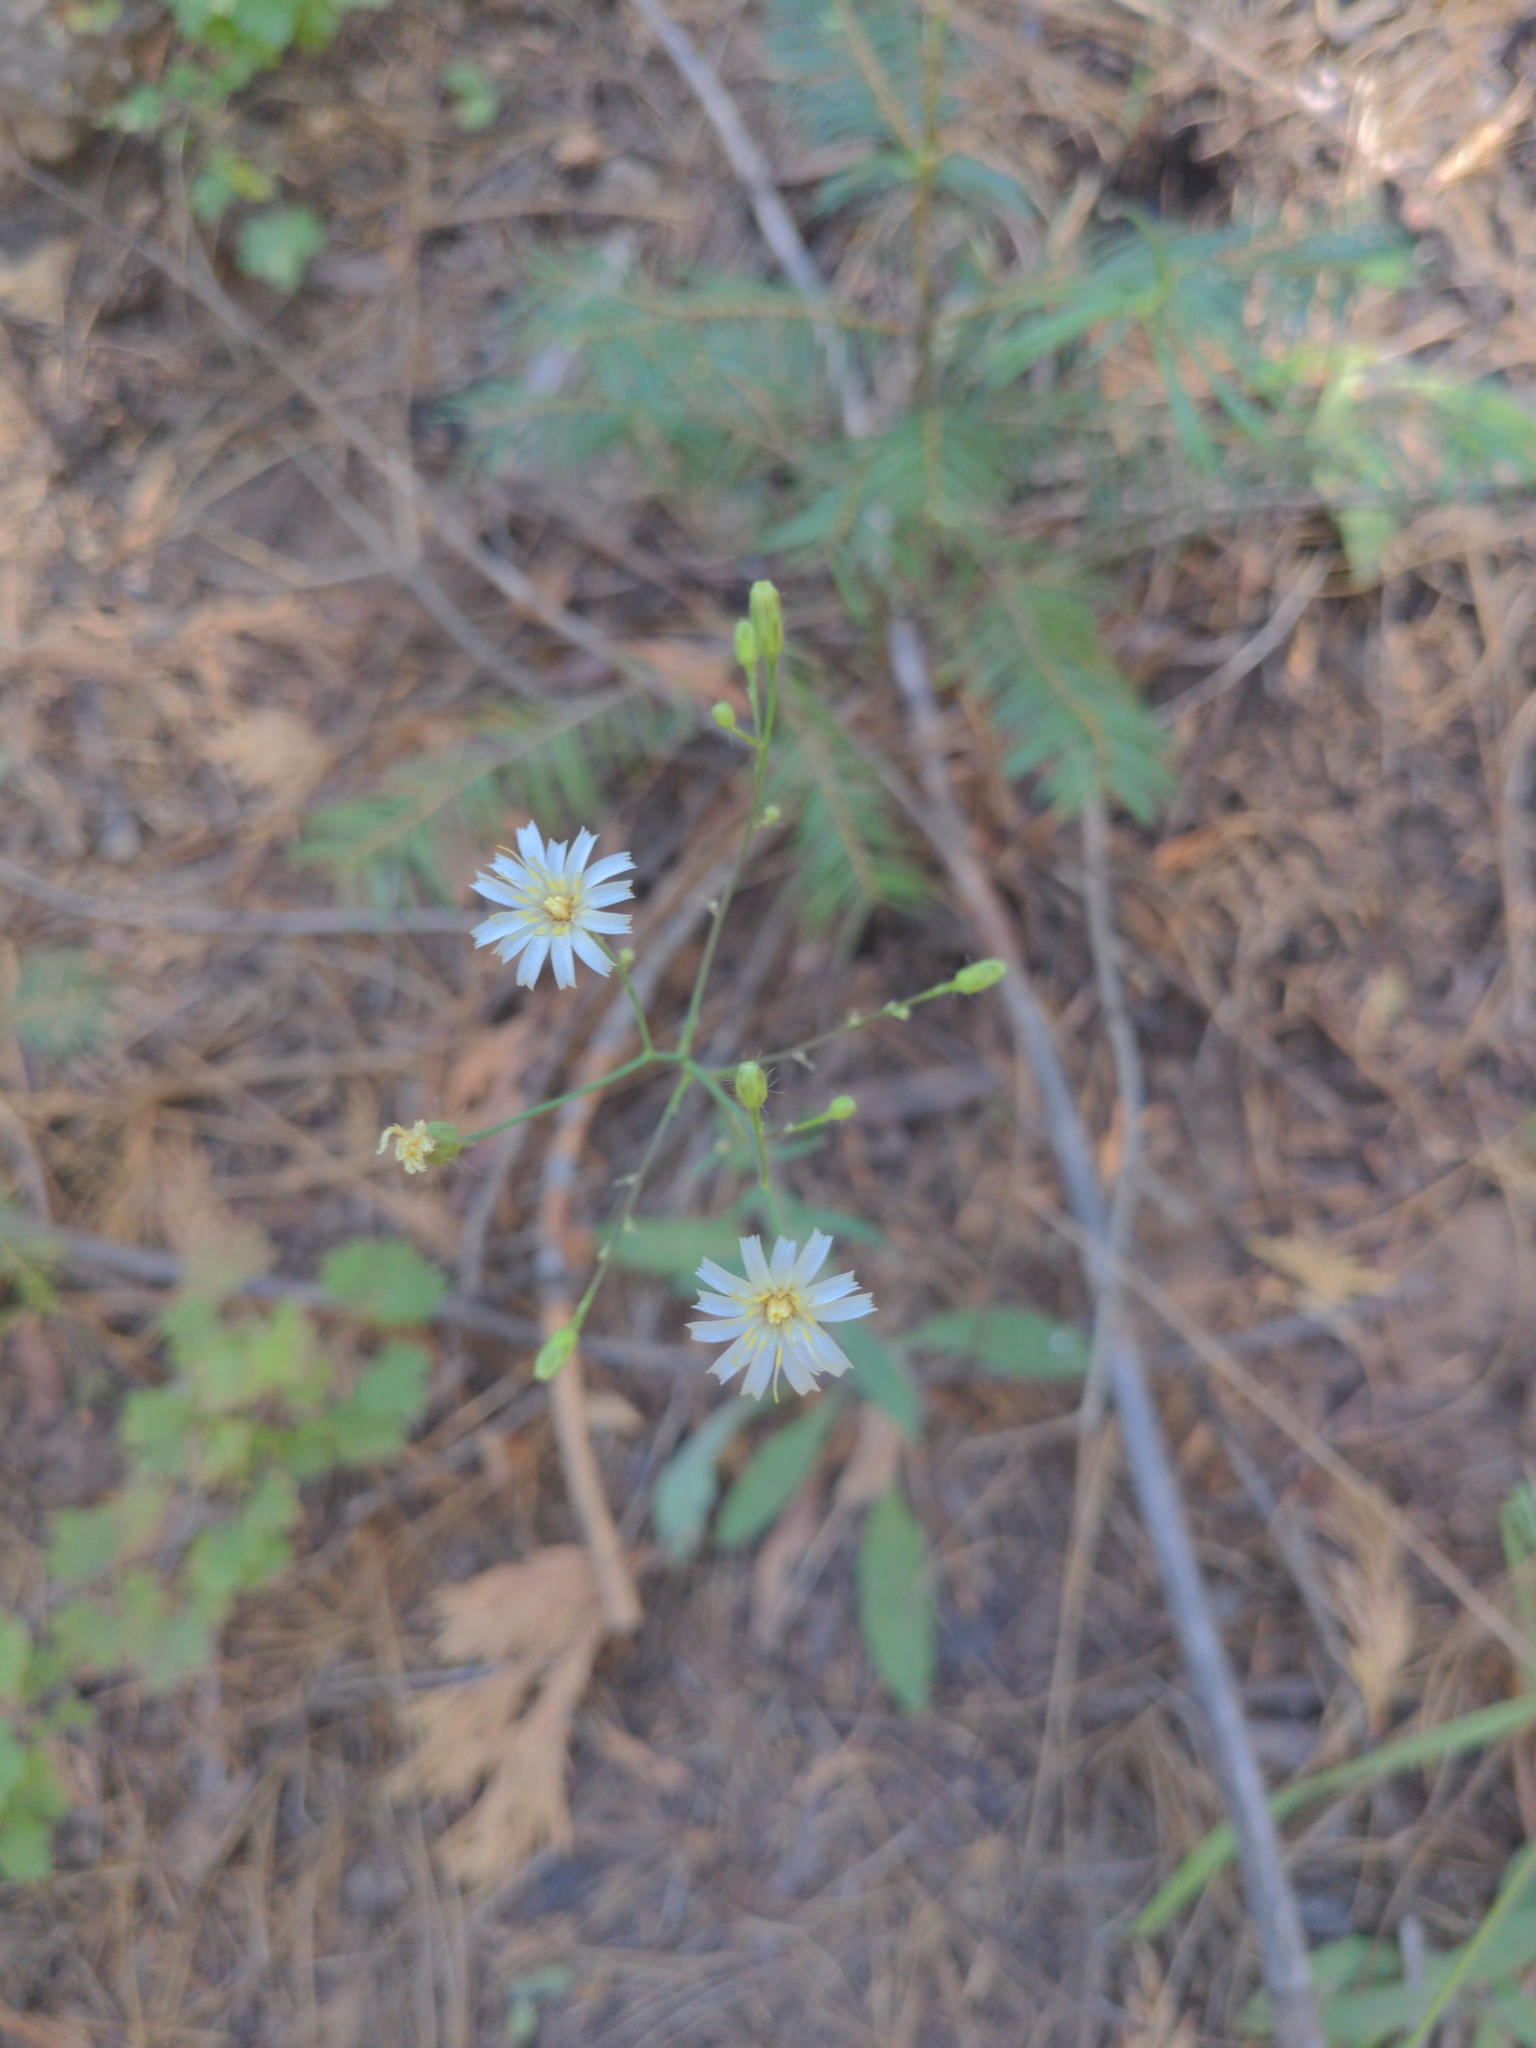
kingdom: Plantae
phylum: Tracheophyta
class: Magnoliopsida
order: Asterales
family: Asteraceae
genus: Hieracium
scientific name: Hieracium albiflorum
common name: White hawkweed
